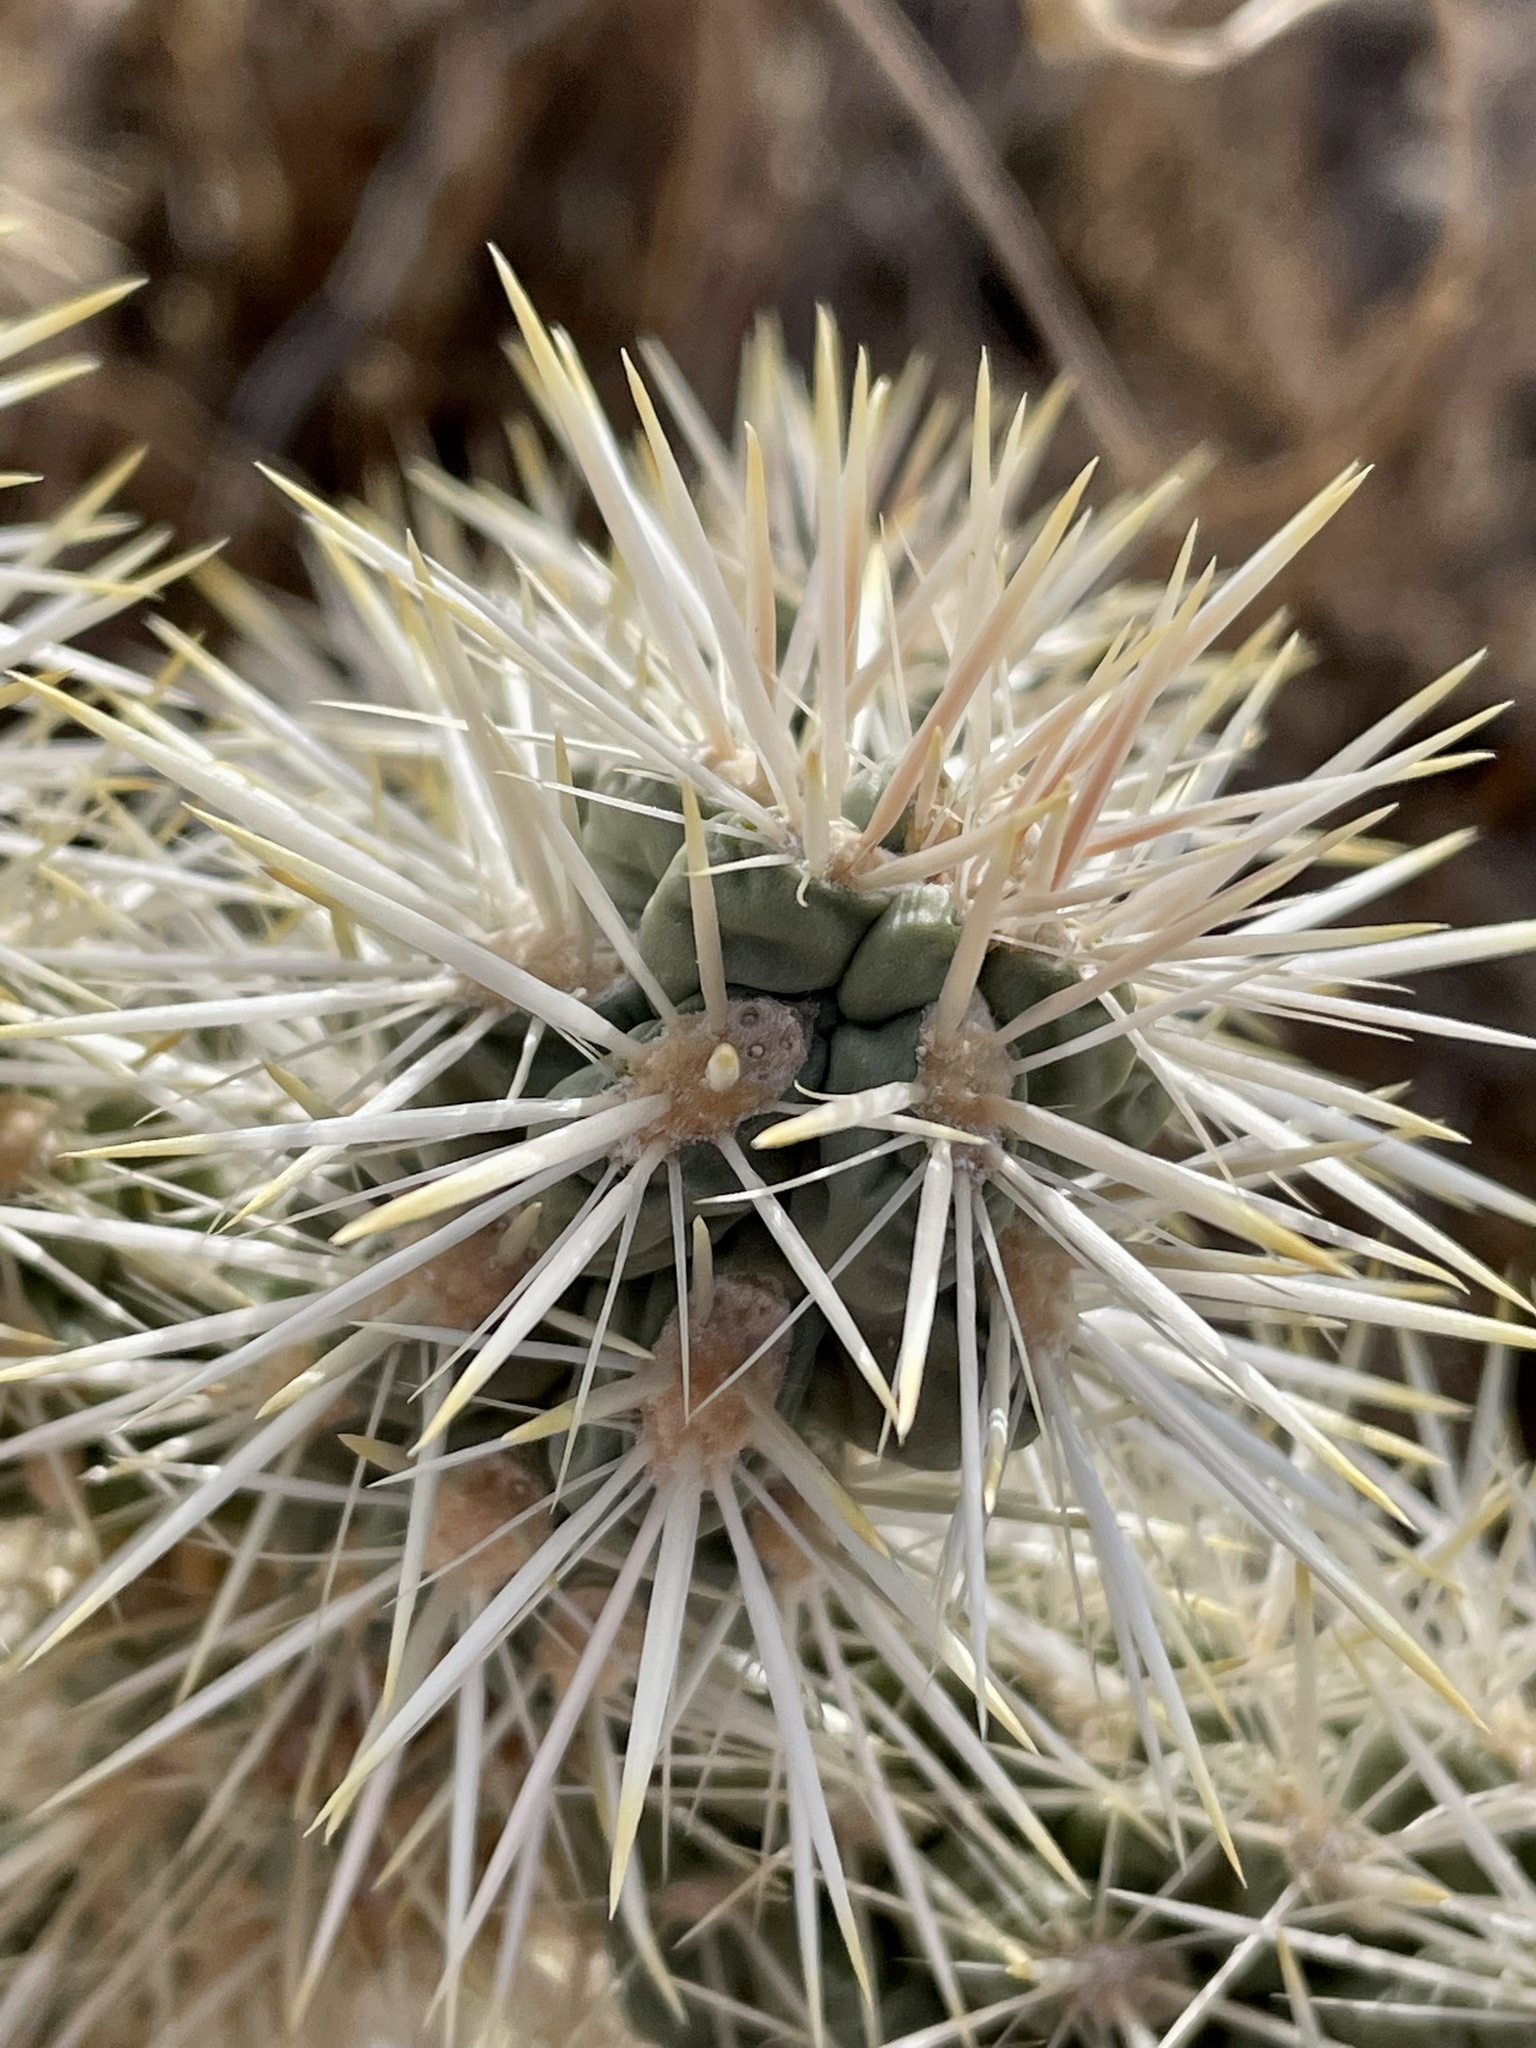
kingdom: Plantae
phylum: Tracheophyta
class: Magnoliopsida
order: Caryophyllales
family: Cactaceae
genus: Cylindropuntia
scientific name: Cylindropuntia echinocarpa
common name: Ground cholla
